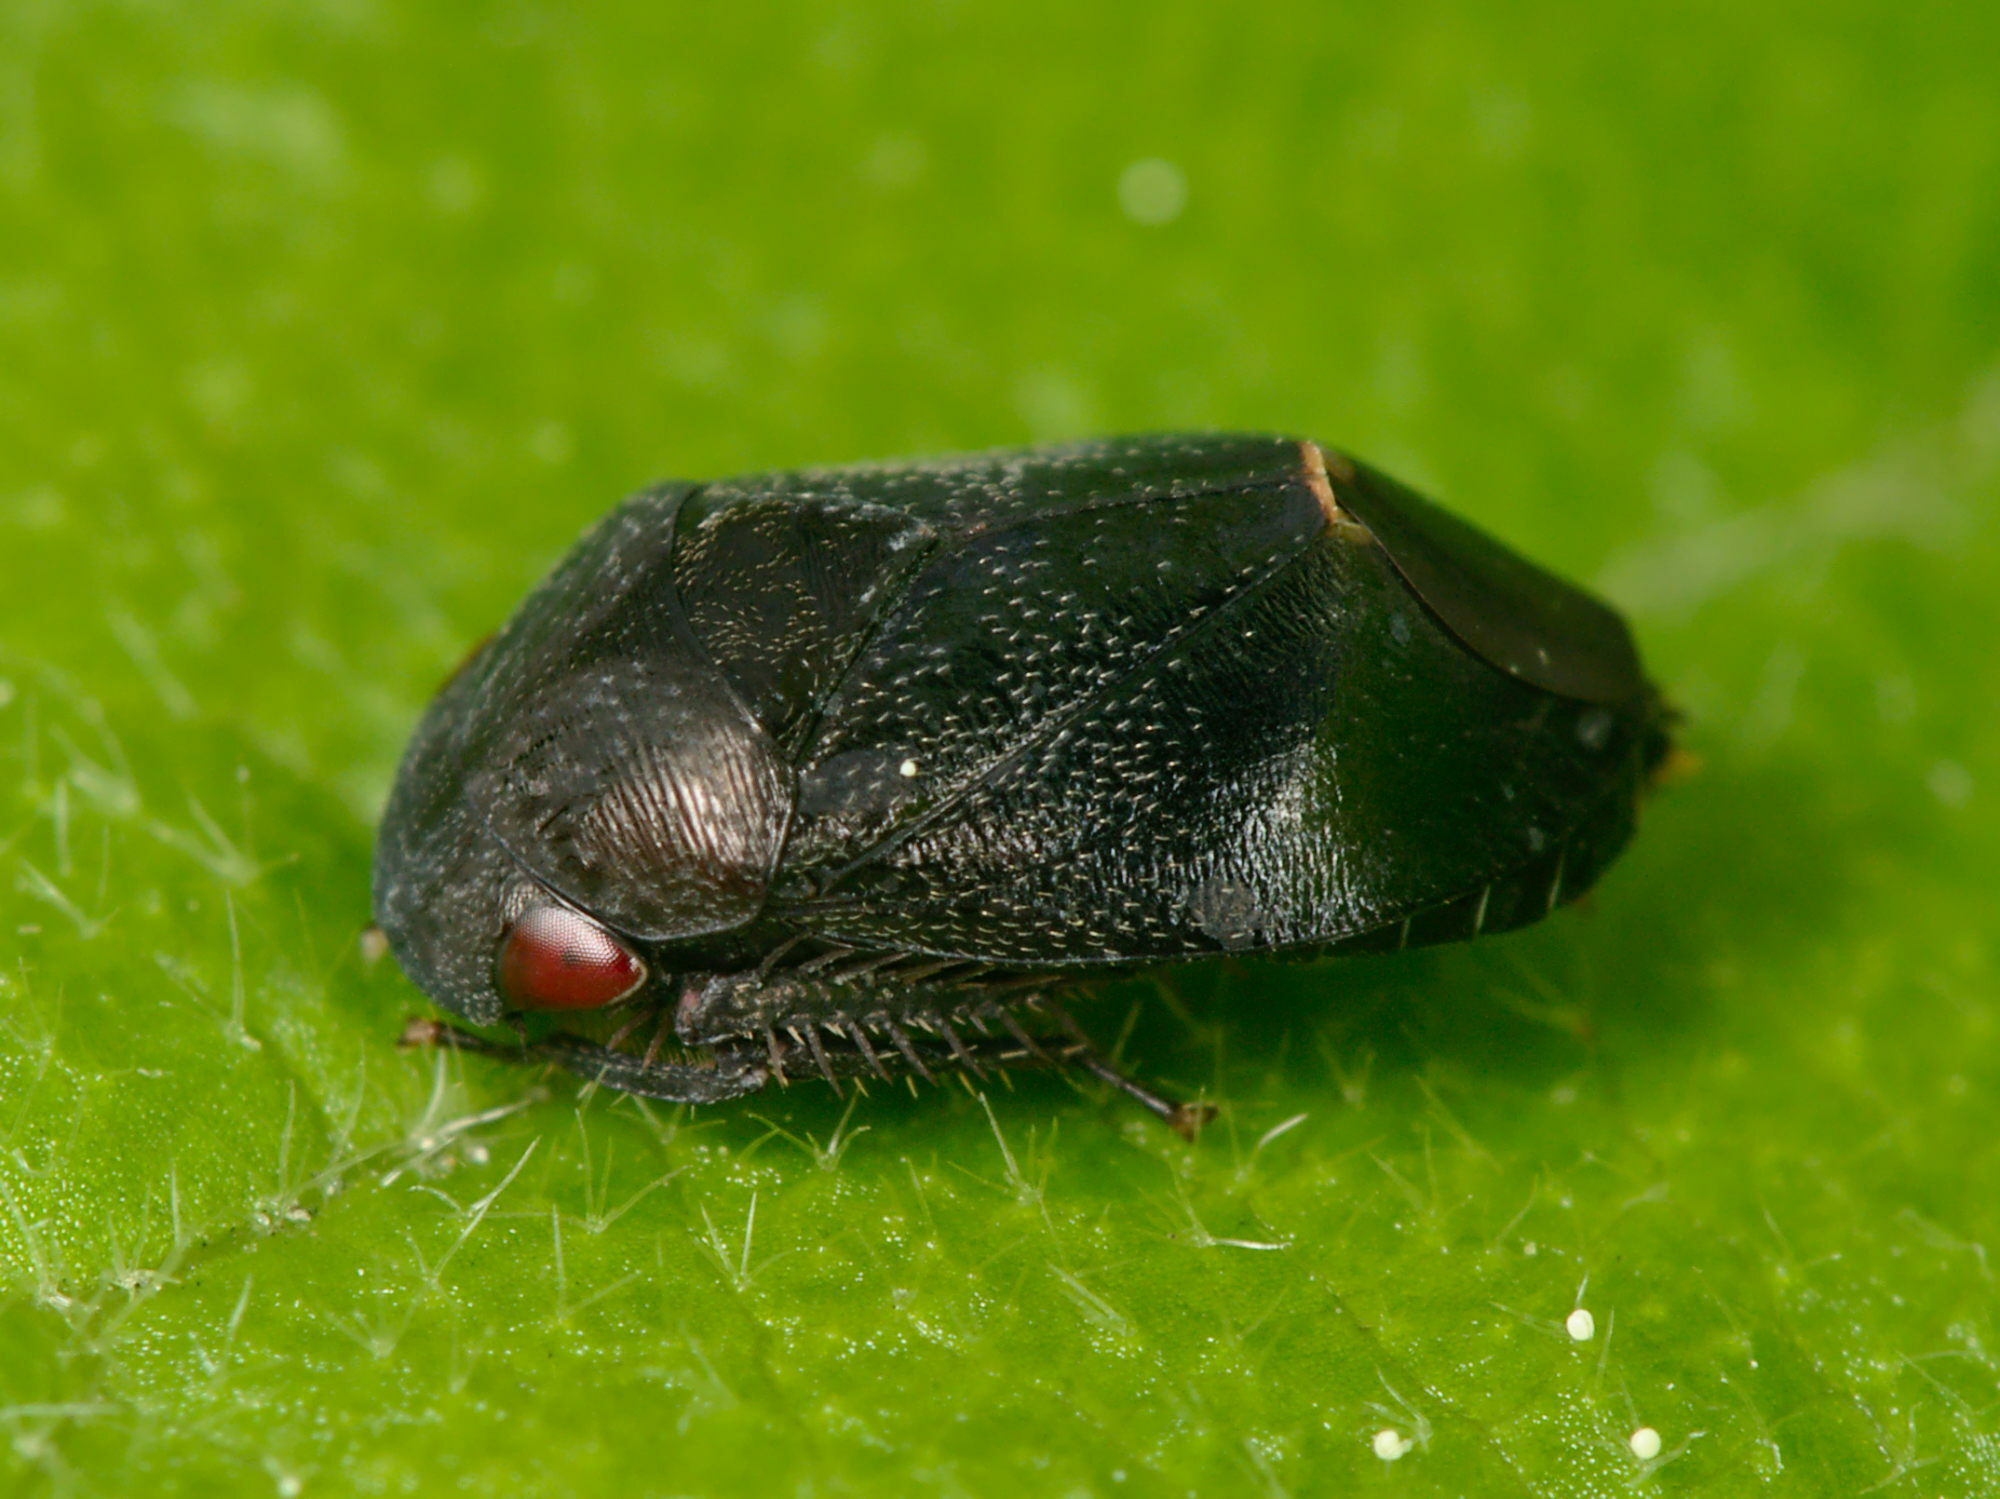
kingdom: Animalia
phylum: Arthropoda
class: Insecta
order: Hemiptera
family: Cicadellidae
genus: Penthimia
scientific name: Penthimia nigra
